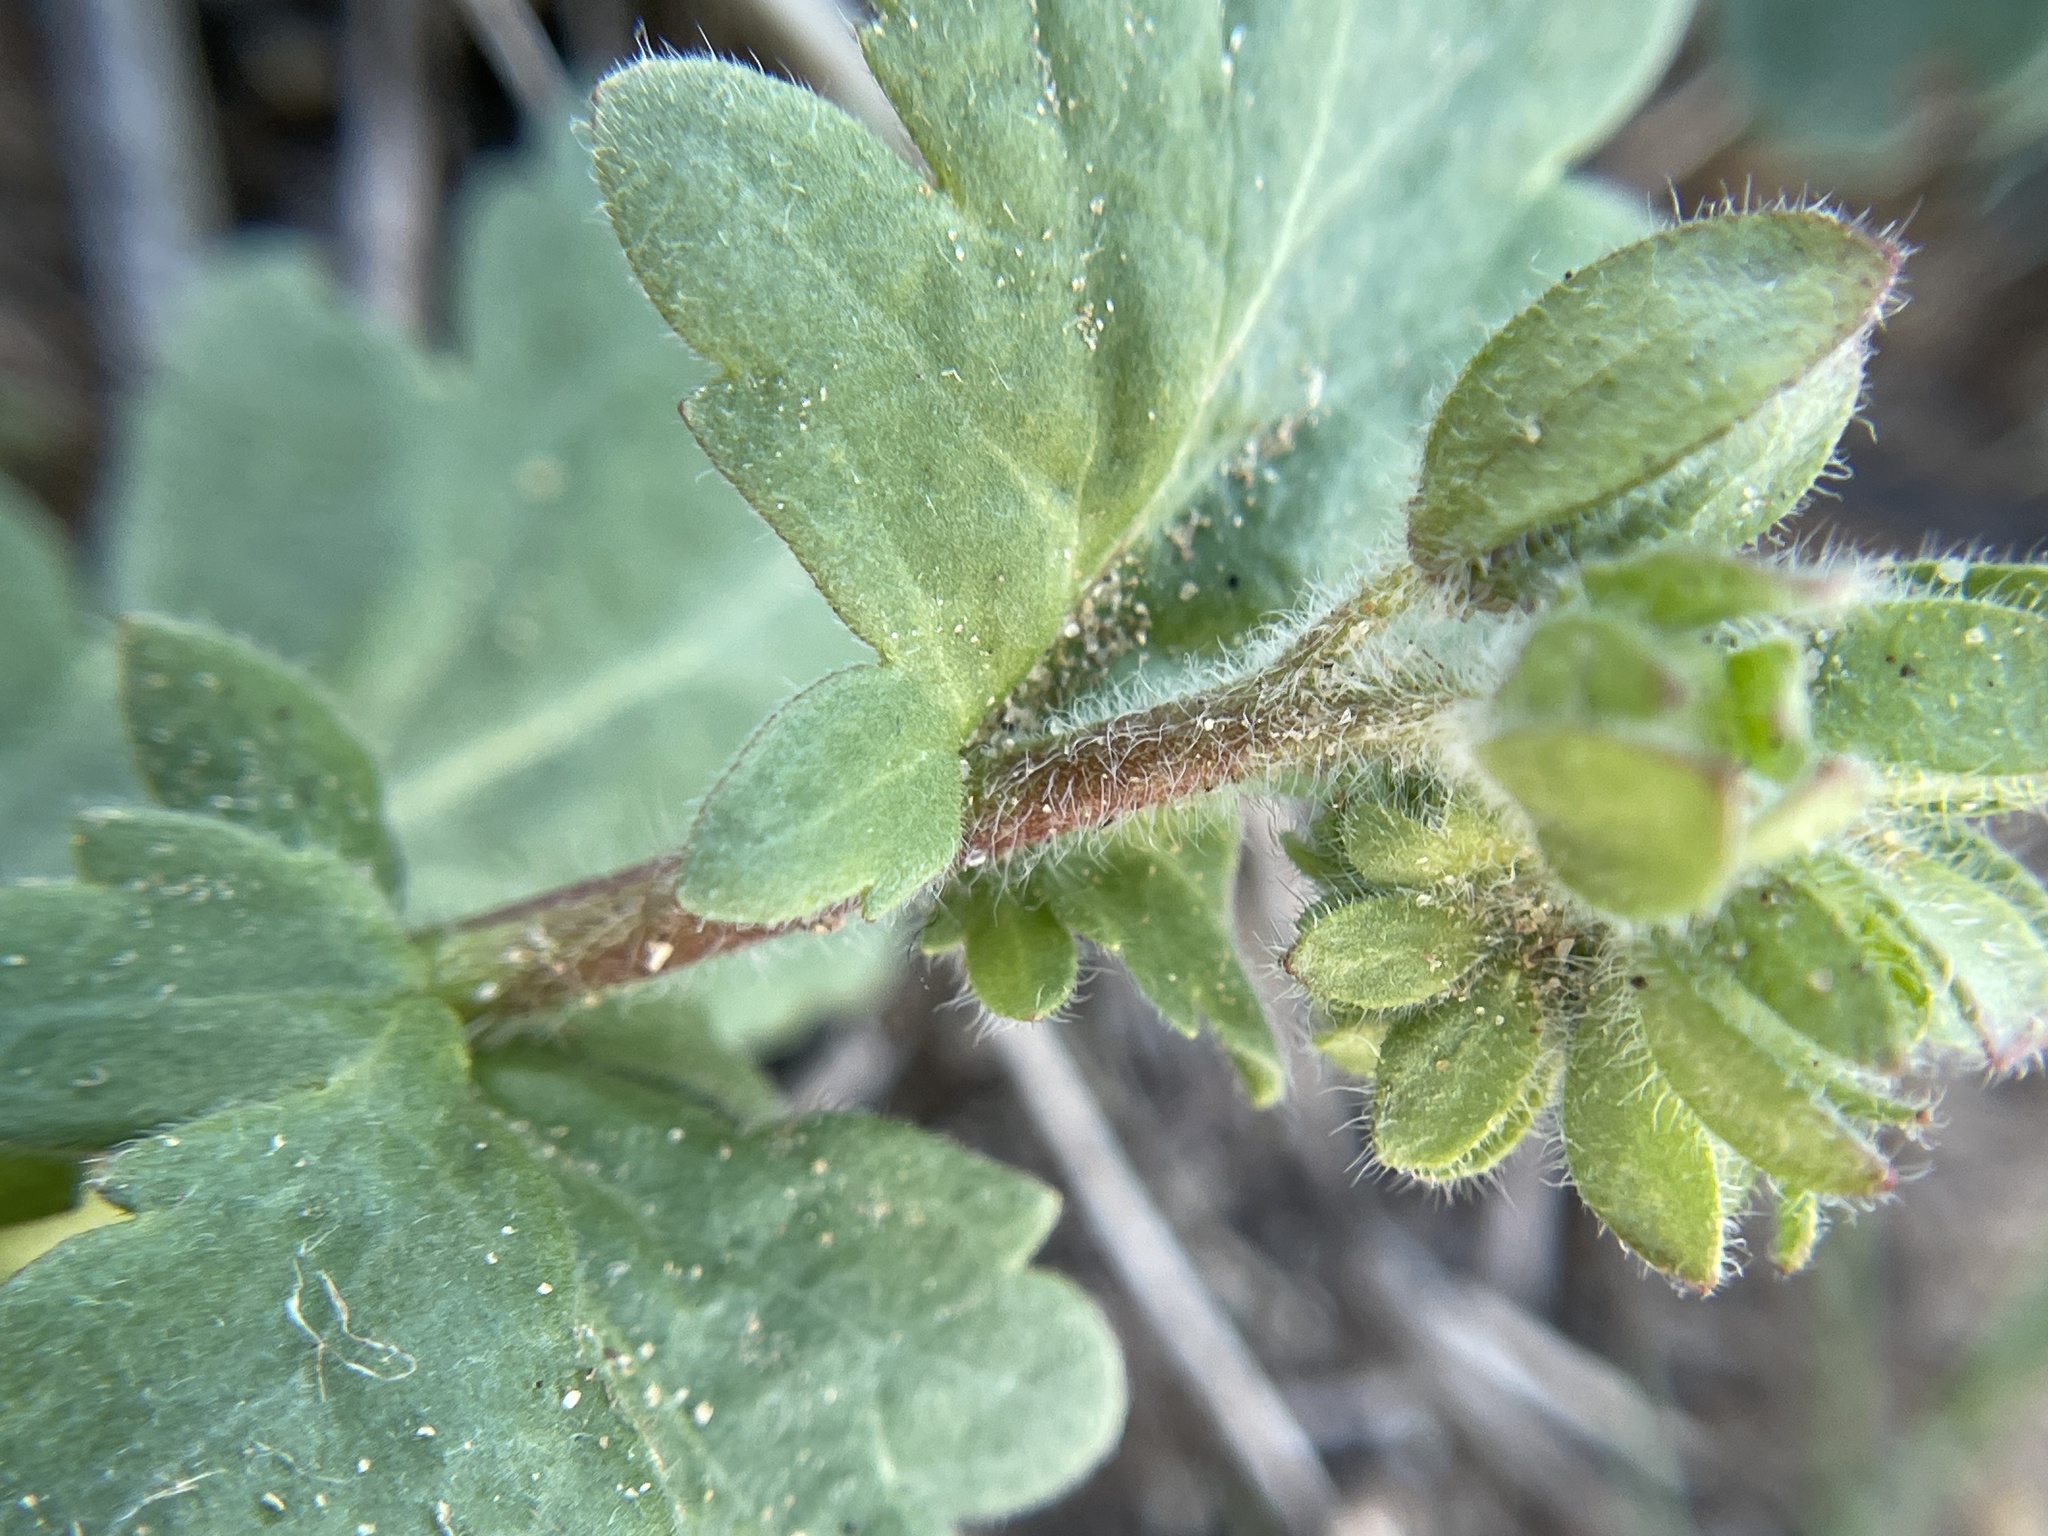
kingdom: Plantae
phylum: Tracheophyta
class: Magnoliopsida
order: Boraginales
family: Hydrophyllaceae
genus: Phacelia
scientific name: Phacelia patuliflora
